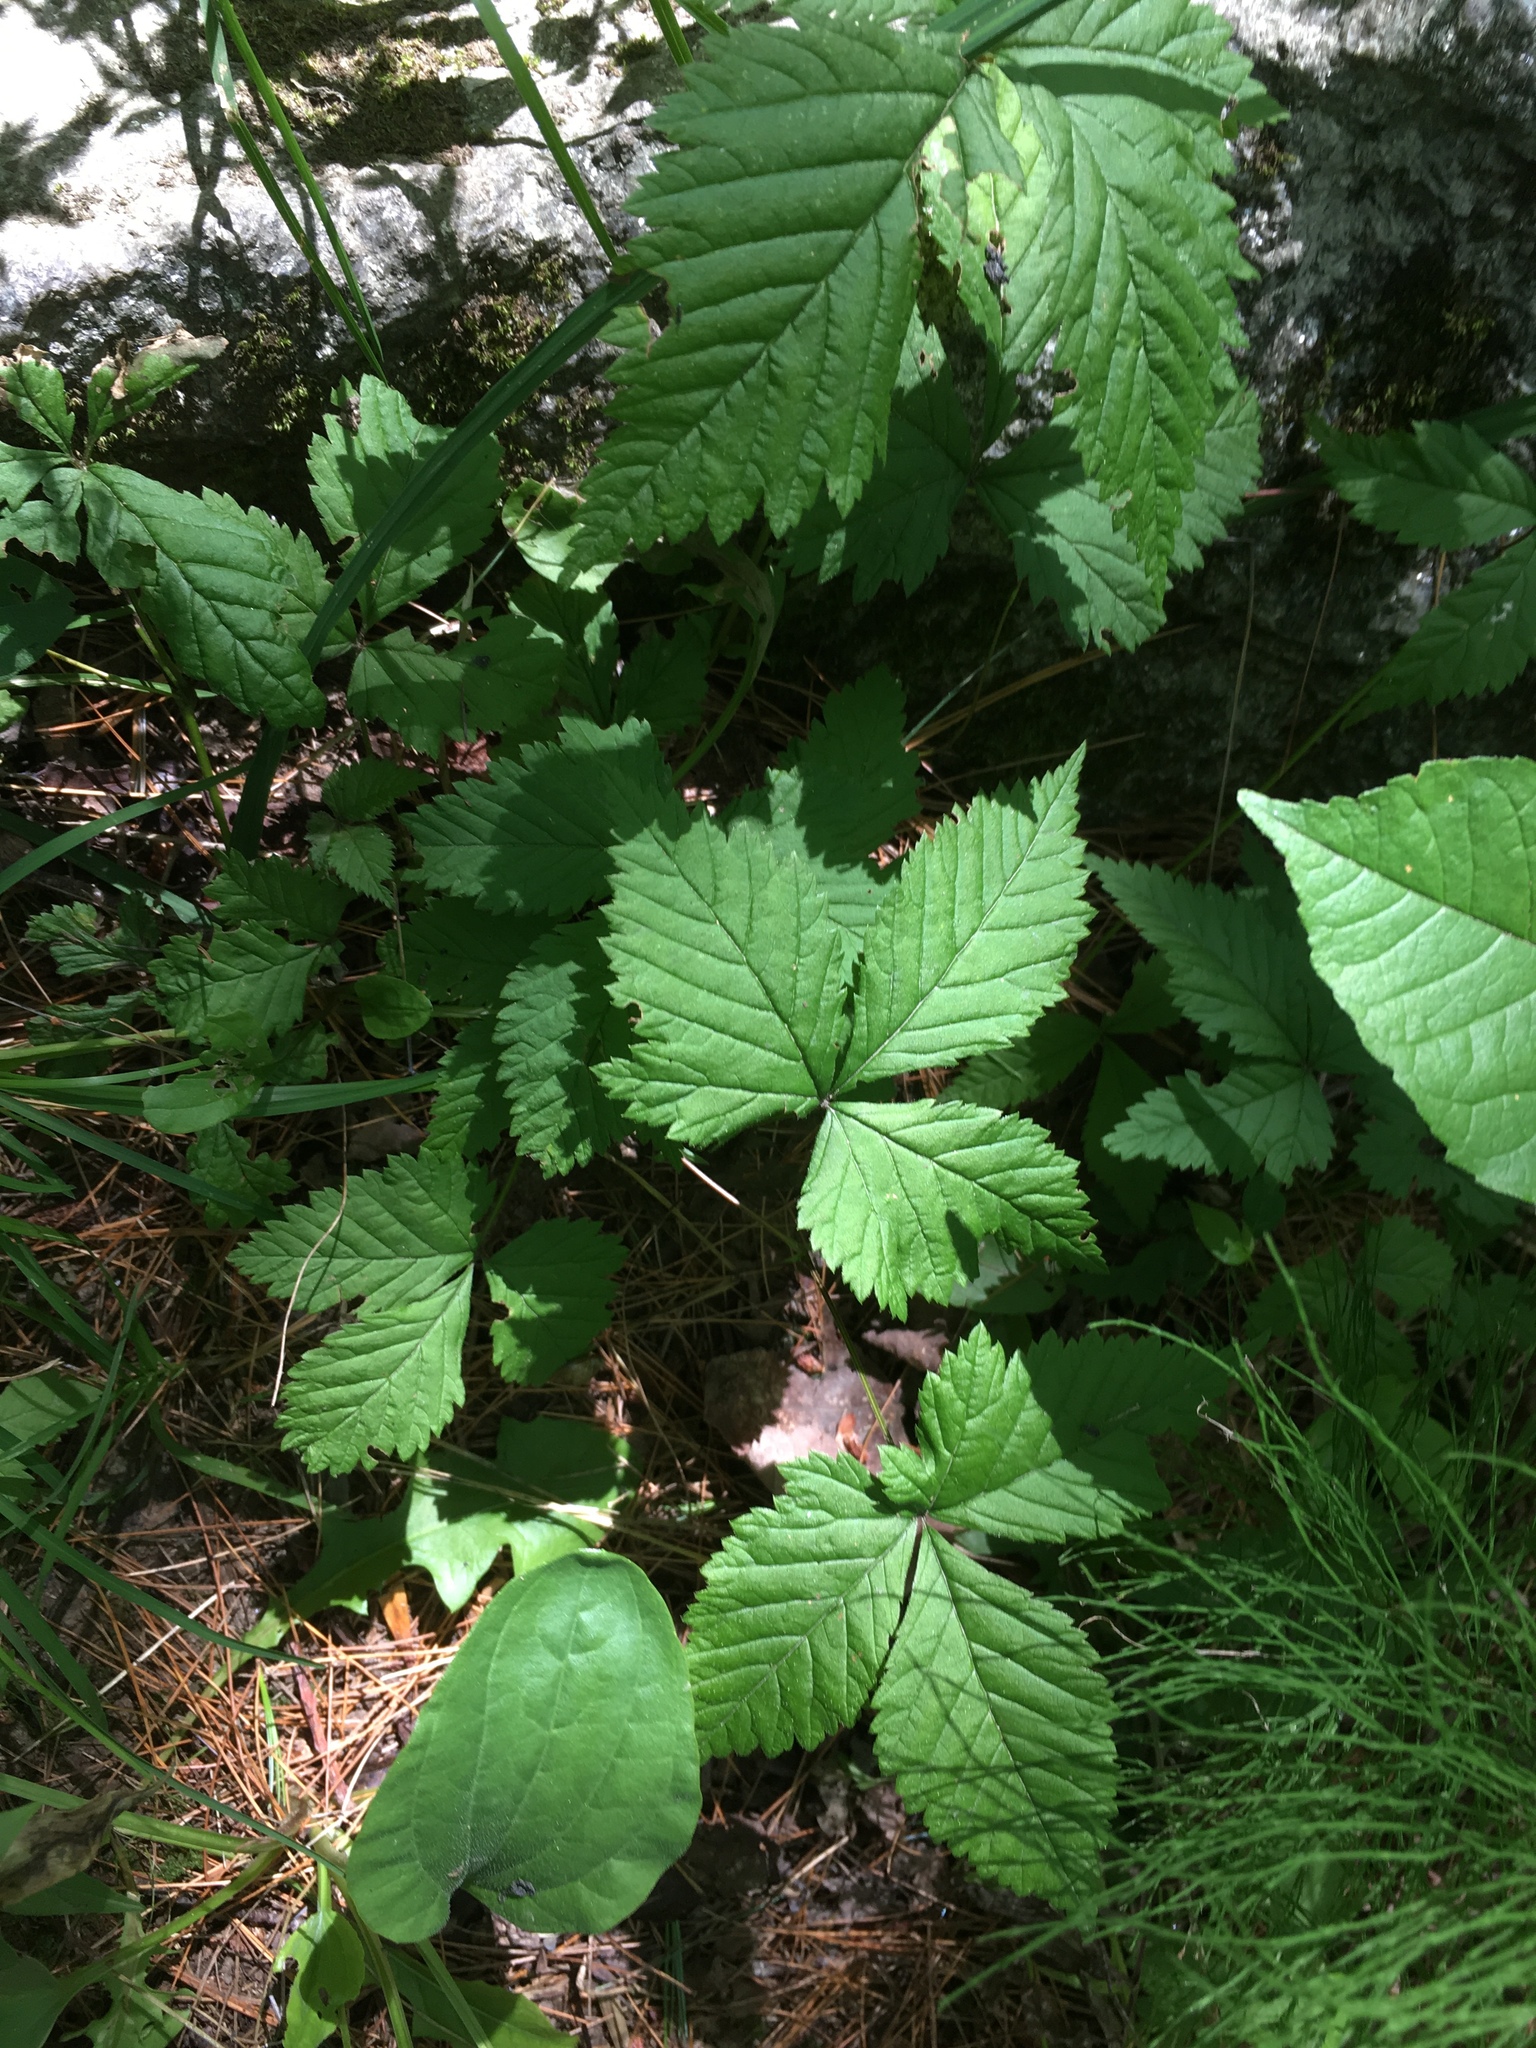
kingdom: Plantae
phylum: Tracheophyta
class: Magnoliopsida
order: Rosales
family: Rosaceae
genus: Rubus
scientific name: Rubus pubescens
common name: Dwarf raspberry
